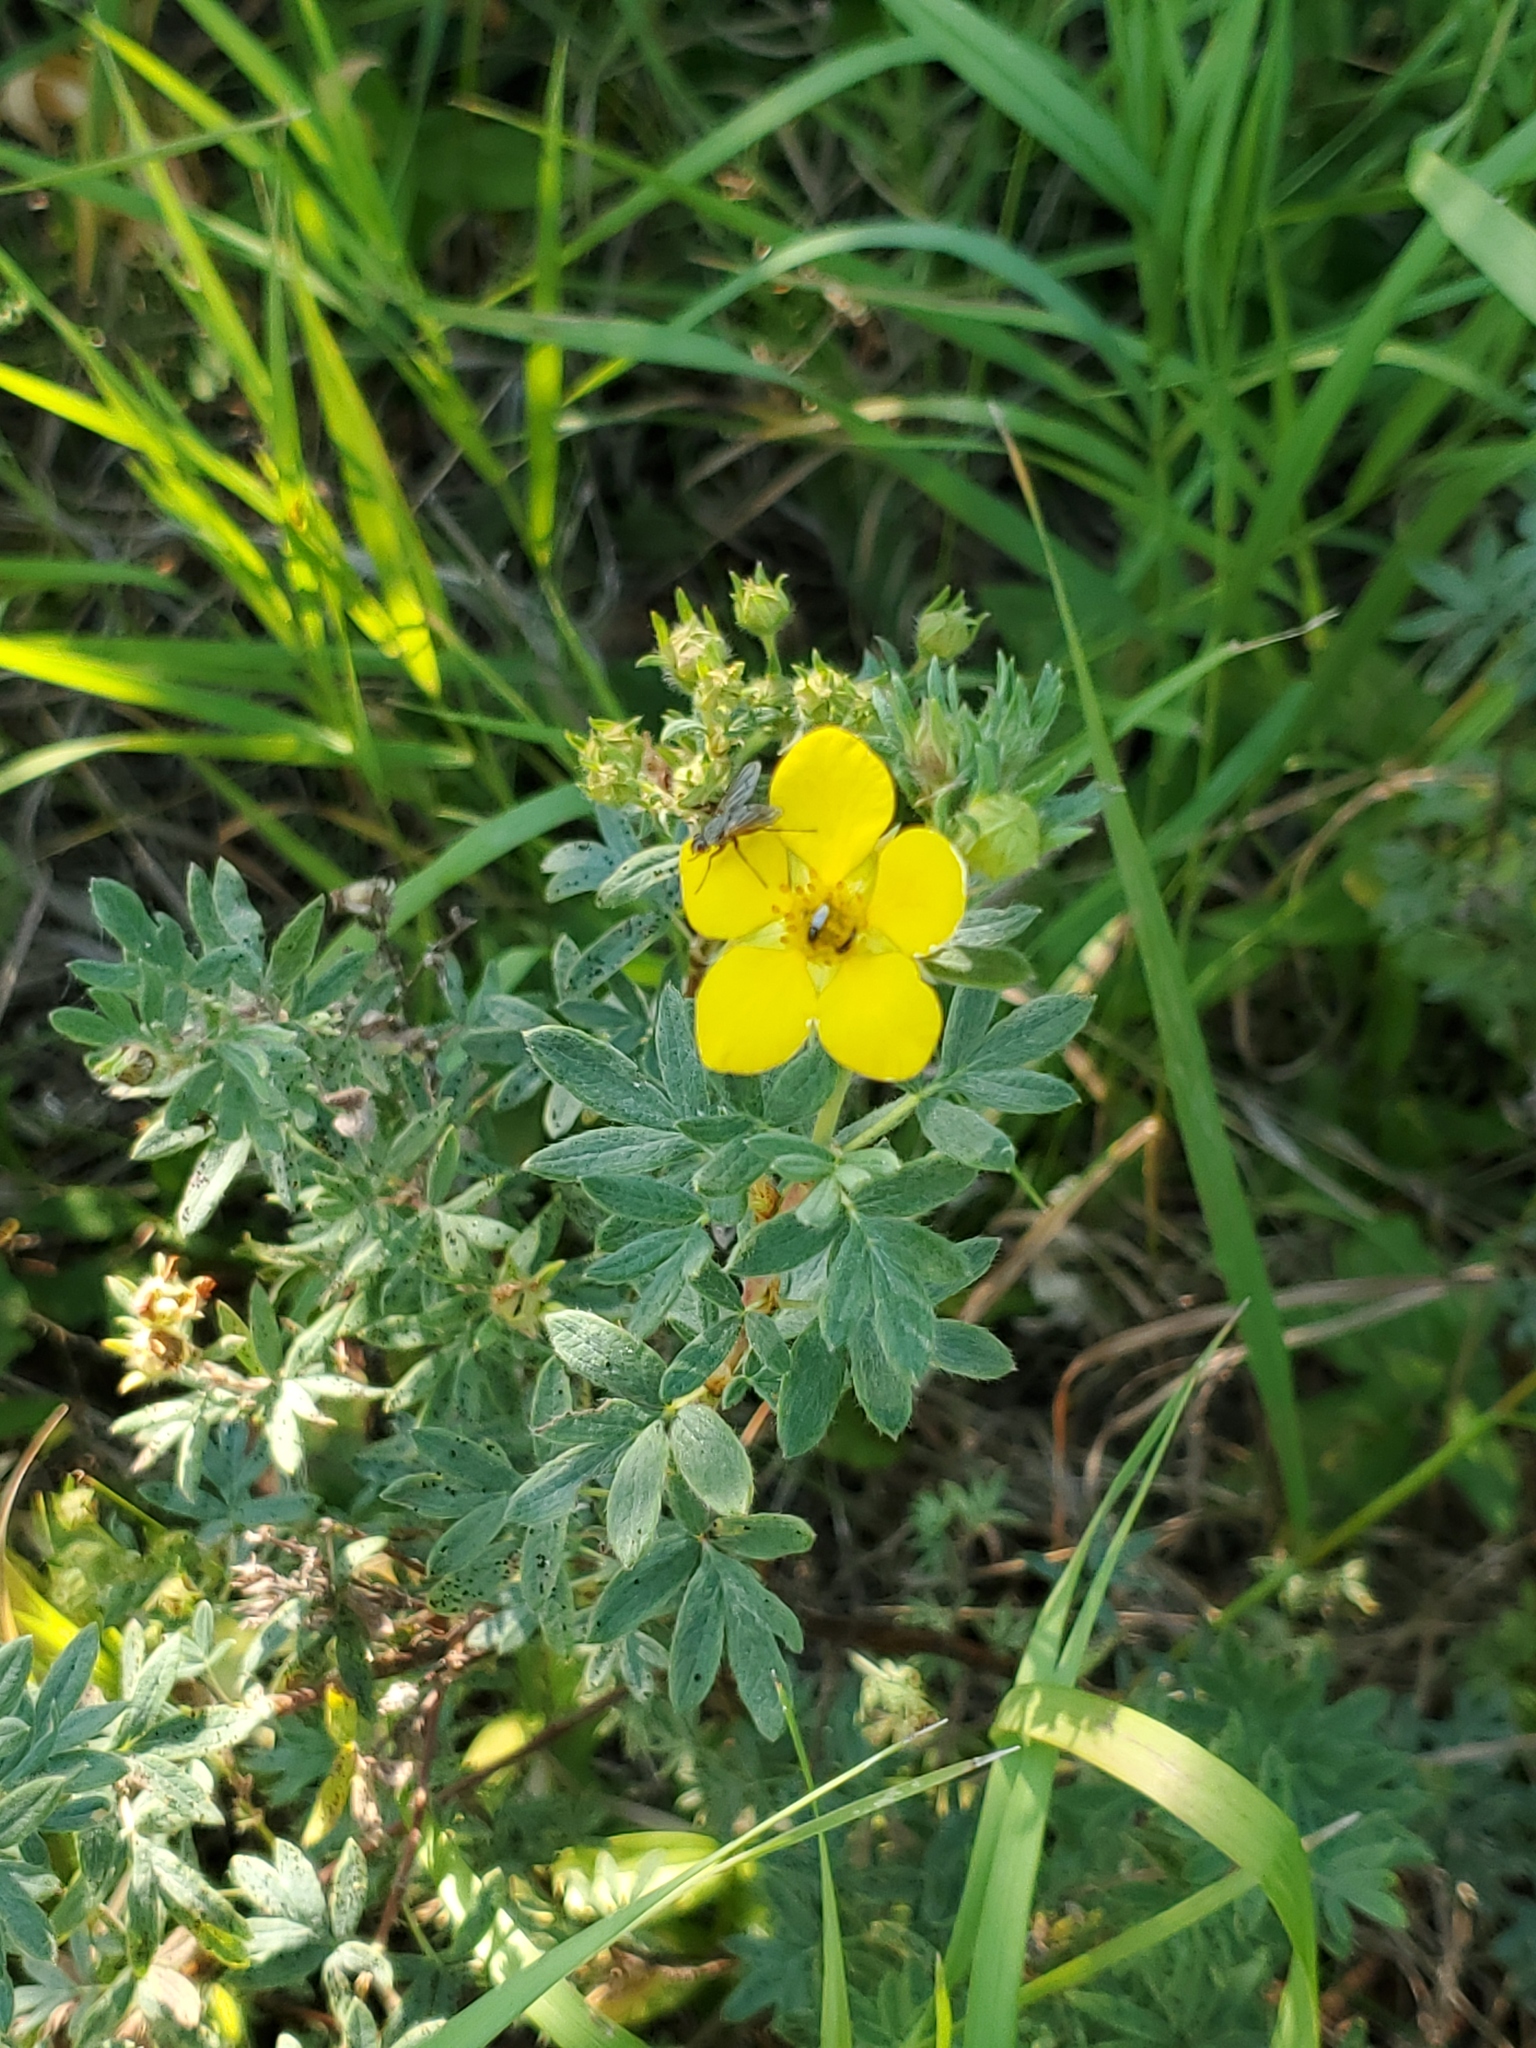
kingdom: Plantae
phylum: Tracheophyta
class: Magnoliopsida
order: Rosales
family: Rosaceae
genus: Dasiphora
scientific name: Dasiphora fruticosa
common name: Shrubby cinquefoil
